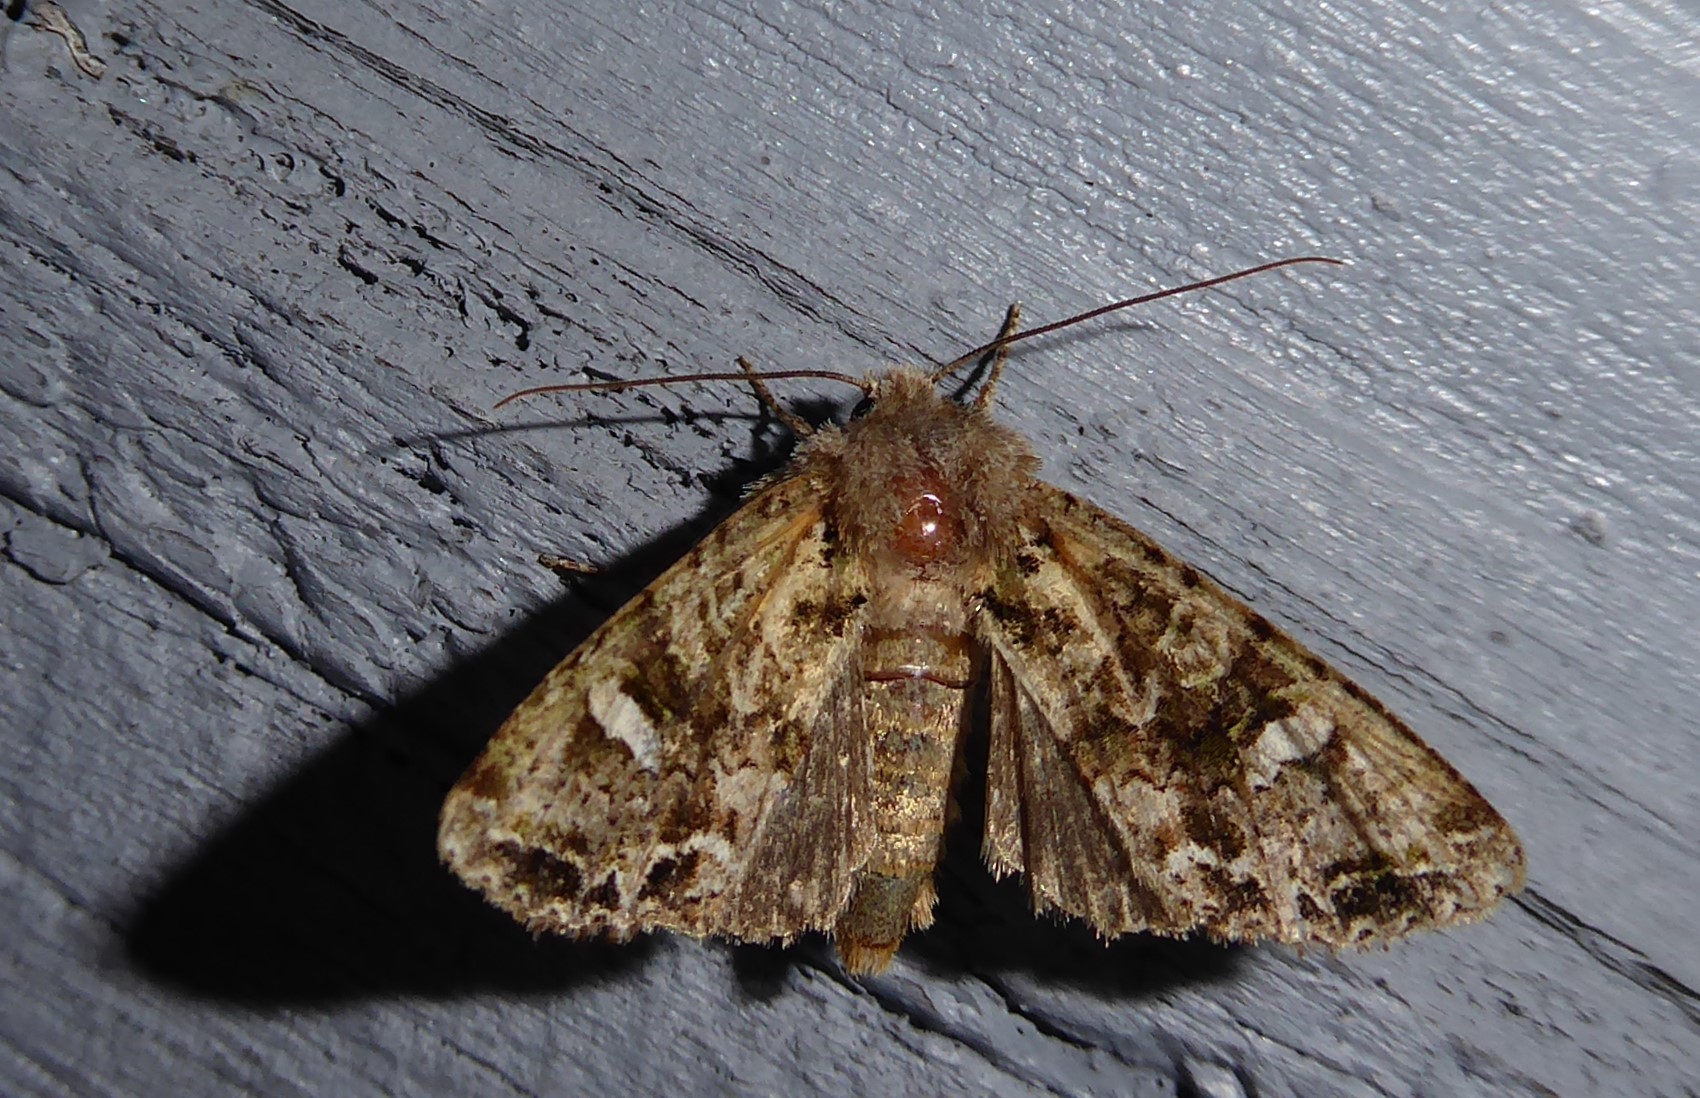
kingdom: Animalia
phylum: Arthropoda
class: Insecta
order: Lepidoptera
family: Noctuidae
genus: Ichneutica
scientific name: Ichneutica
